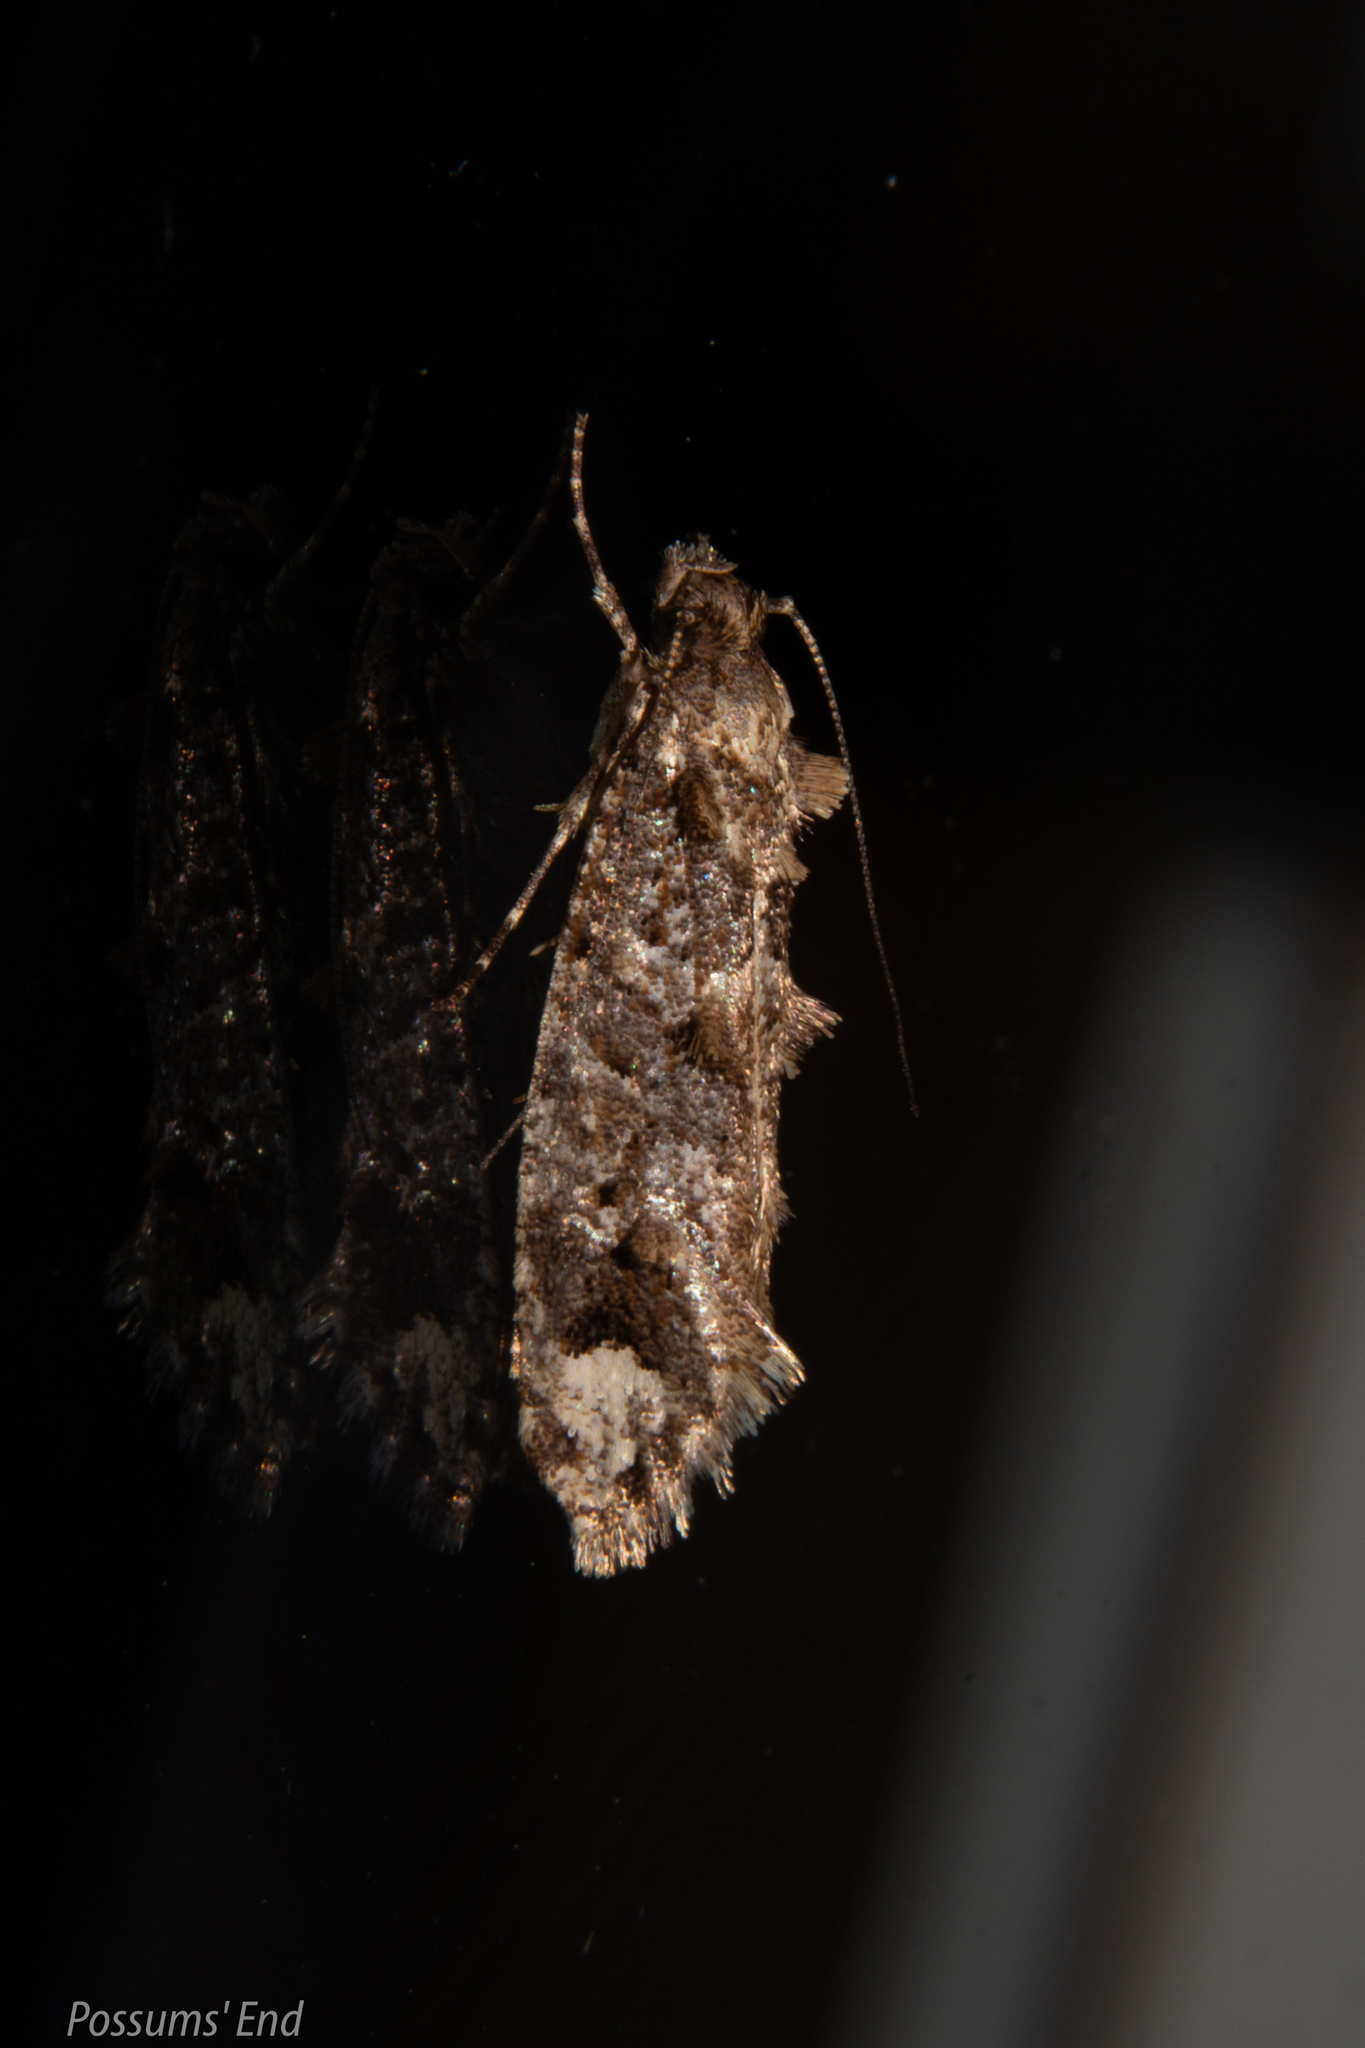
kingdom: Animalia
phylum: Arthropoda
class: Insecta
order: Lepidoptera
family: Tineidae
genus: Lysiphragma
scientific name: Lysiphragma epixyla
